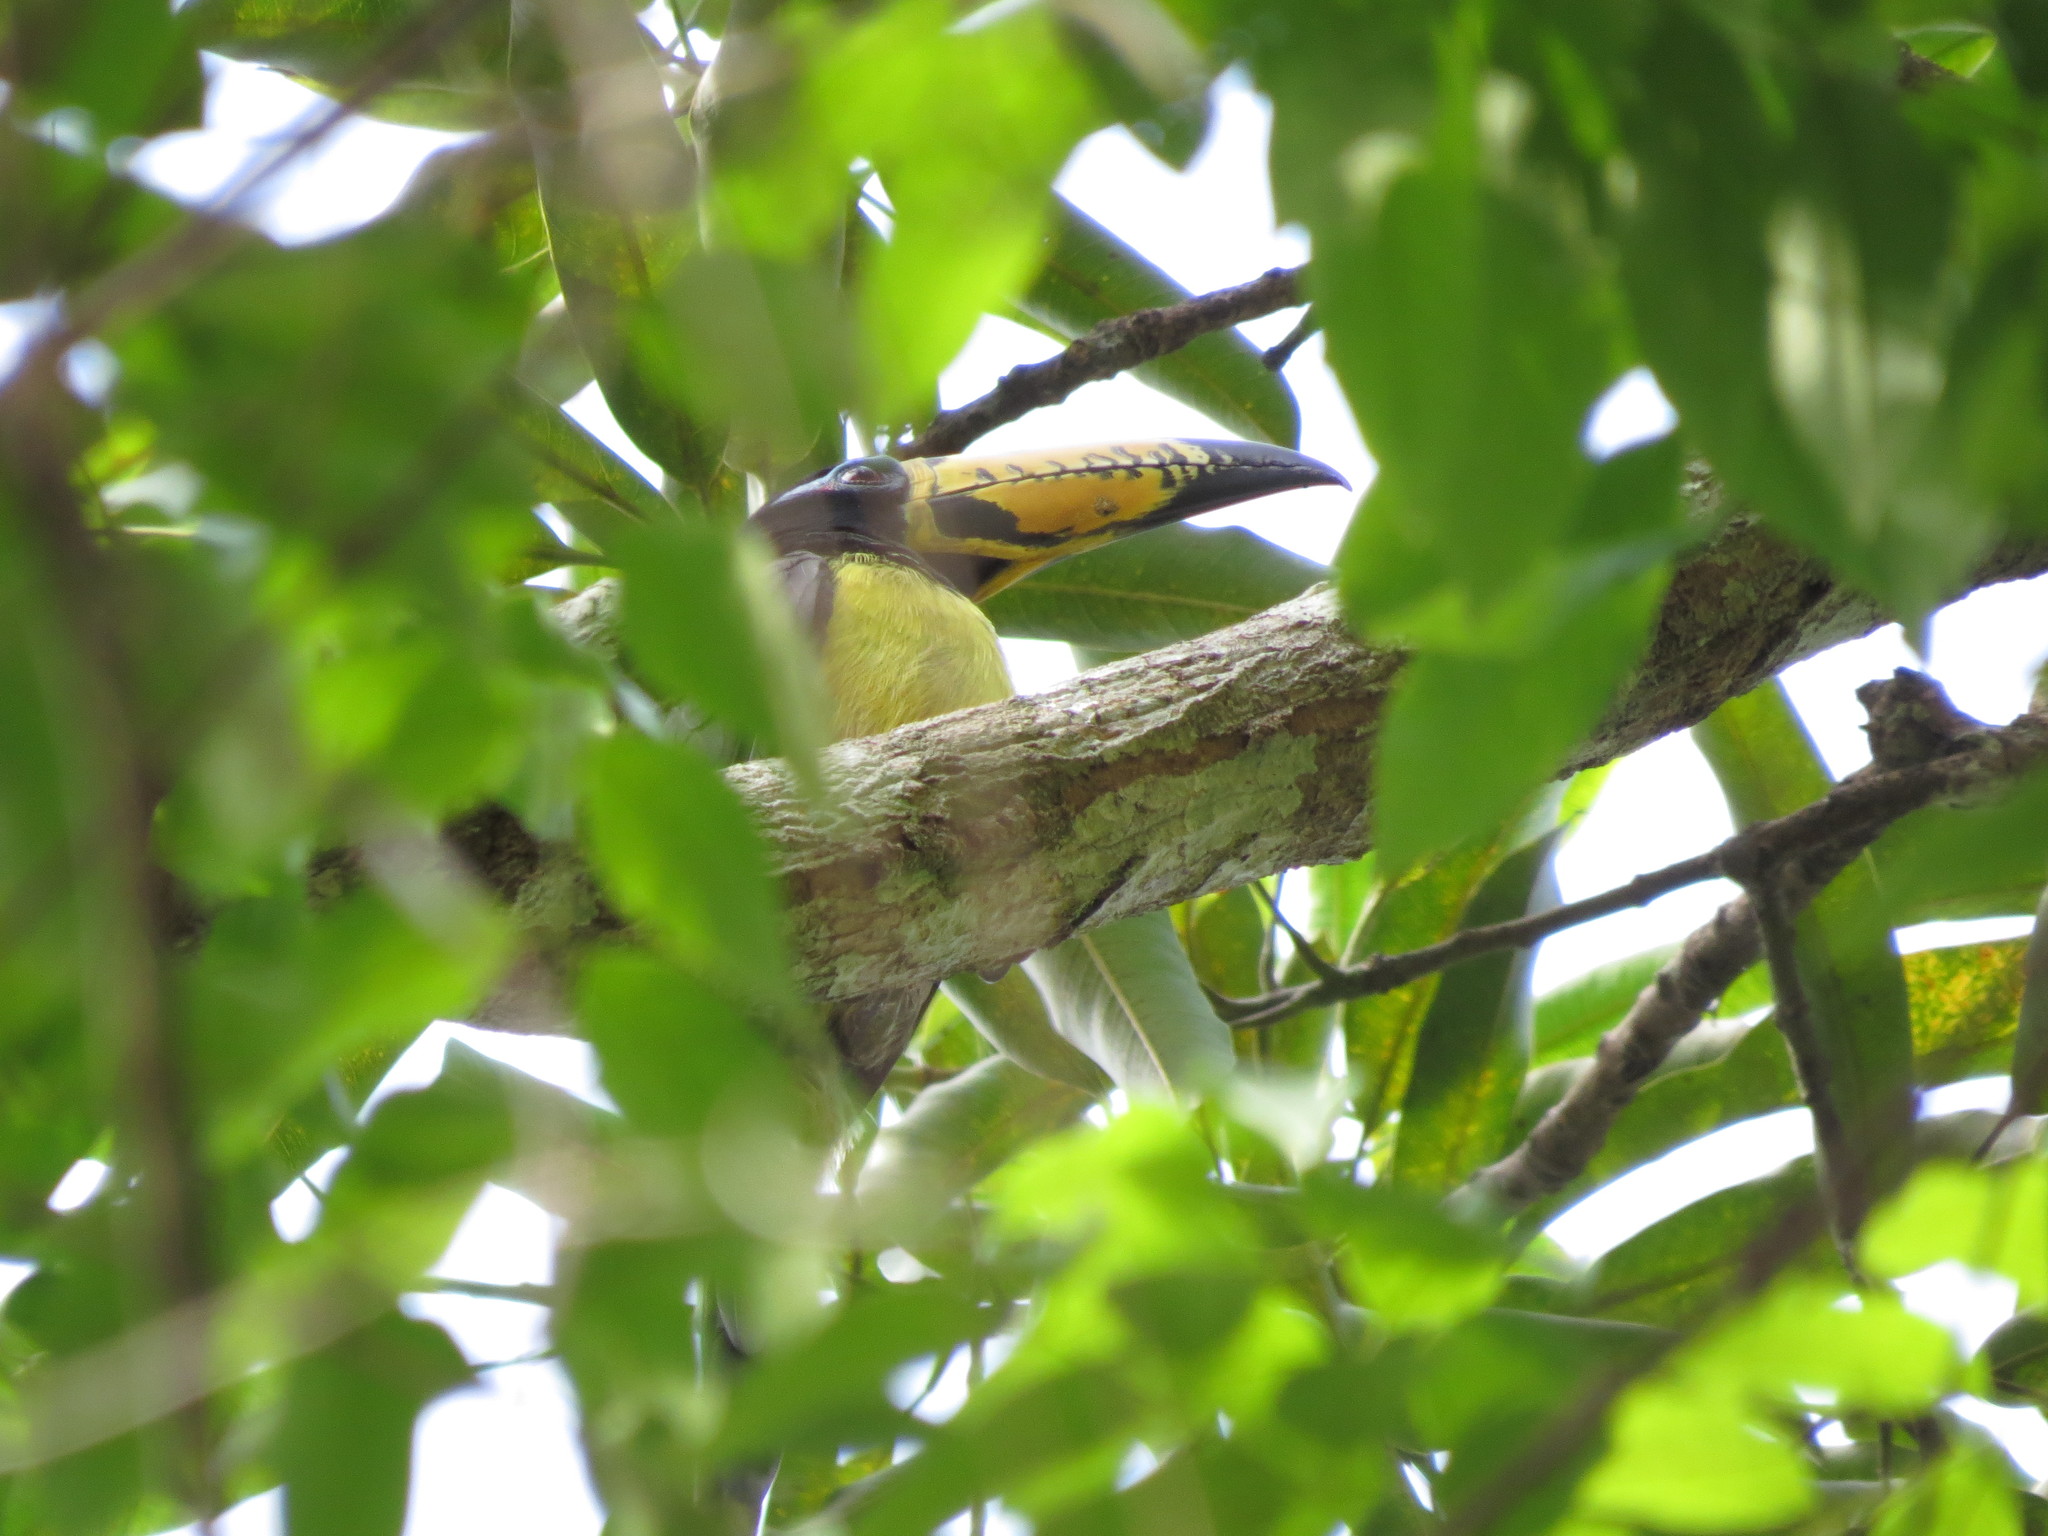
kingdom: Animalia
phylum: Chordata
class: Aves
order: Piciformes
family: Ramphastidae
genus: Pteroglossus
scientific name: Pteroglossus inscriptus
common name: Lettered aracari
